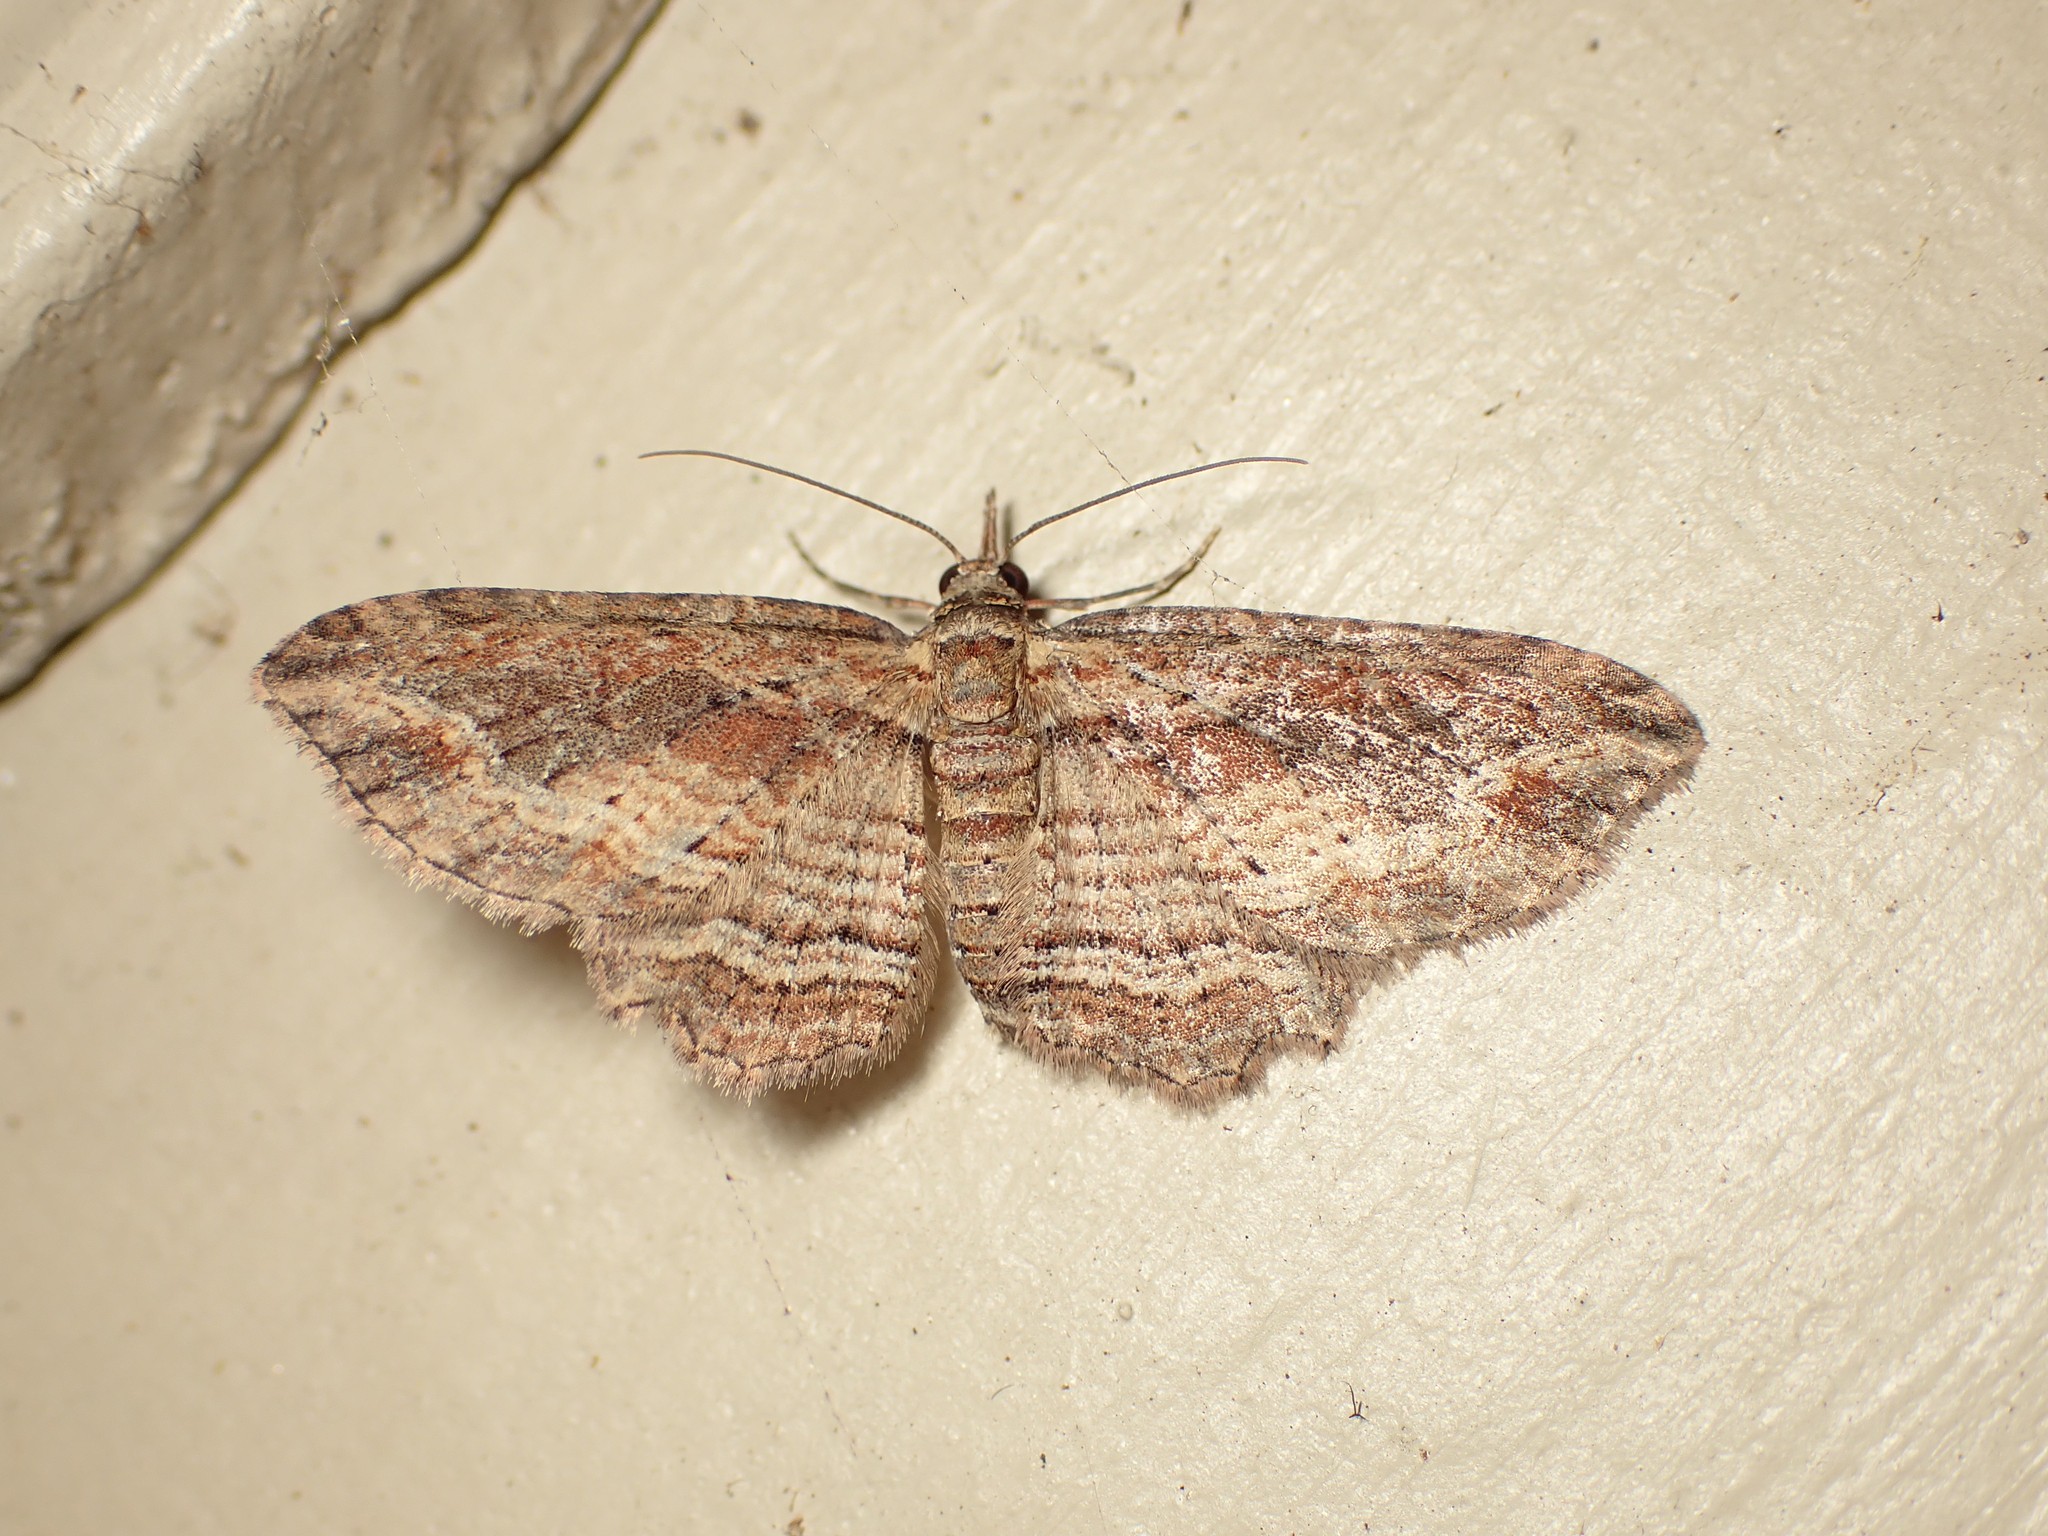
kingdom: Animalia
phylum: Arthropoda
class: Insecta
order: Lepidoptera
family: Geometridae
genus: Chloroclystis
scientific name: Chloroclystis filata
